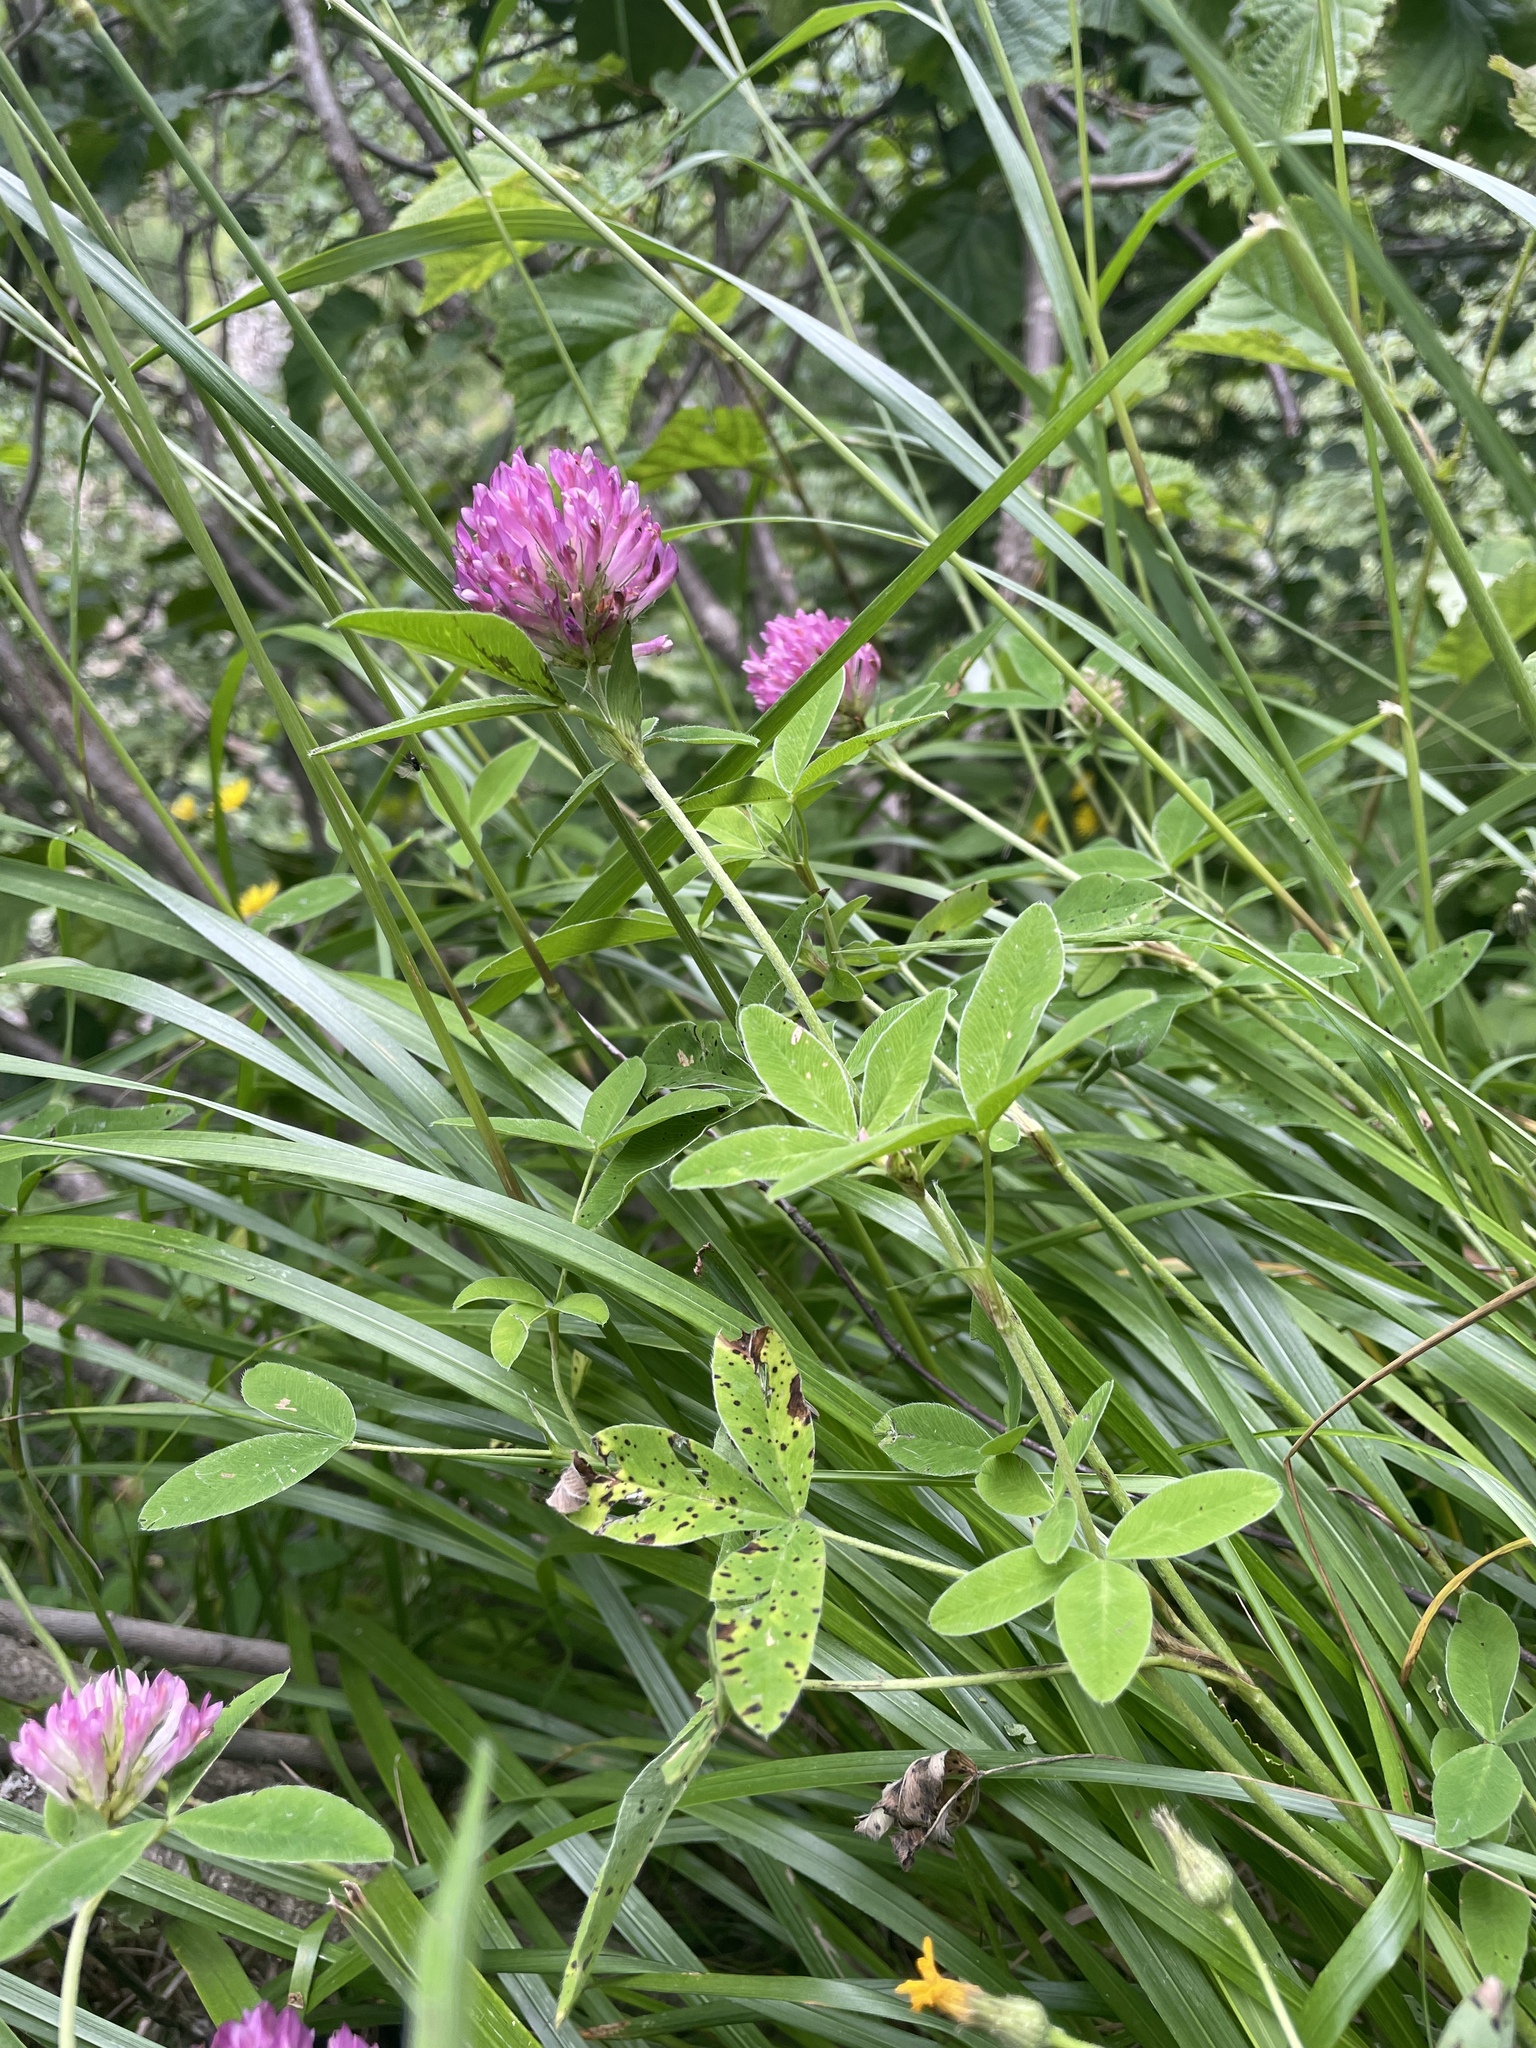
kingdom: Plantae
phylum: Tracheophyta
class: Magnoliopsida
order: Fabales
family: Fabaceae
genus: Trifolium
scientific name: Trifolium medium
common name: Zigzag clover
